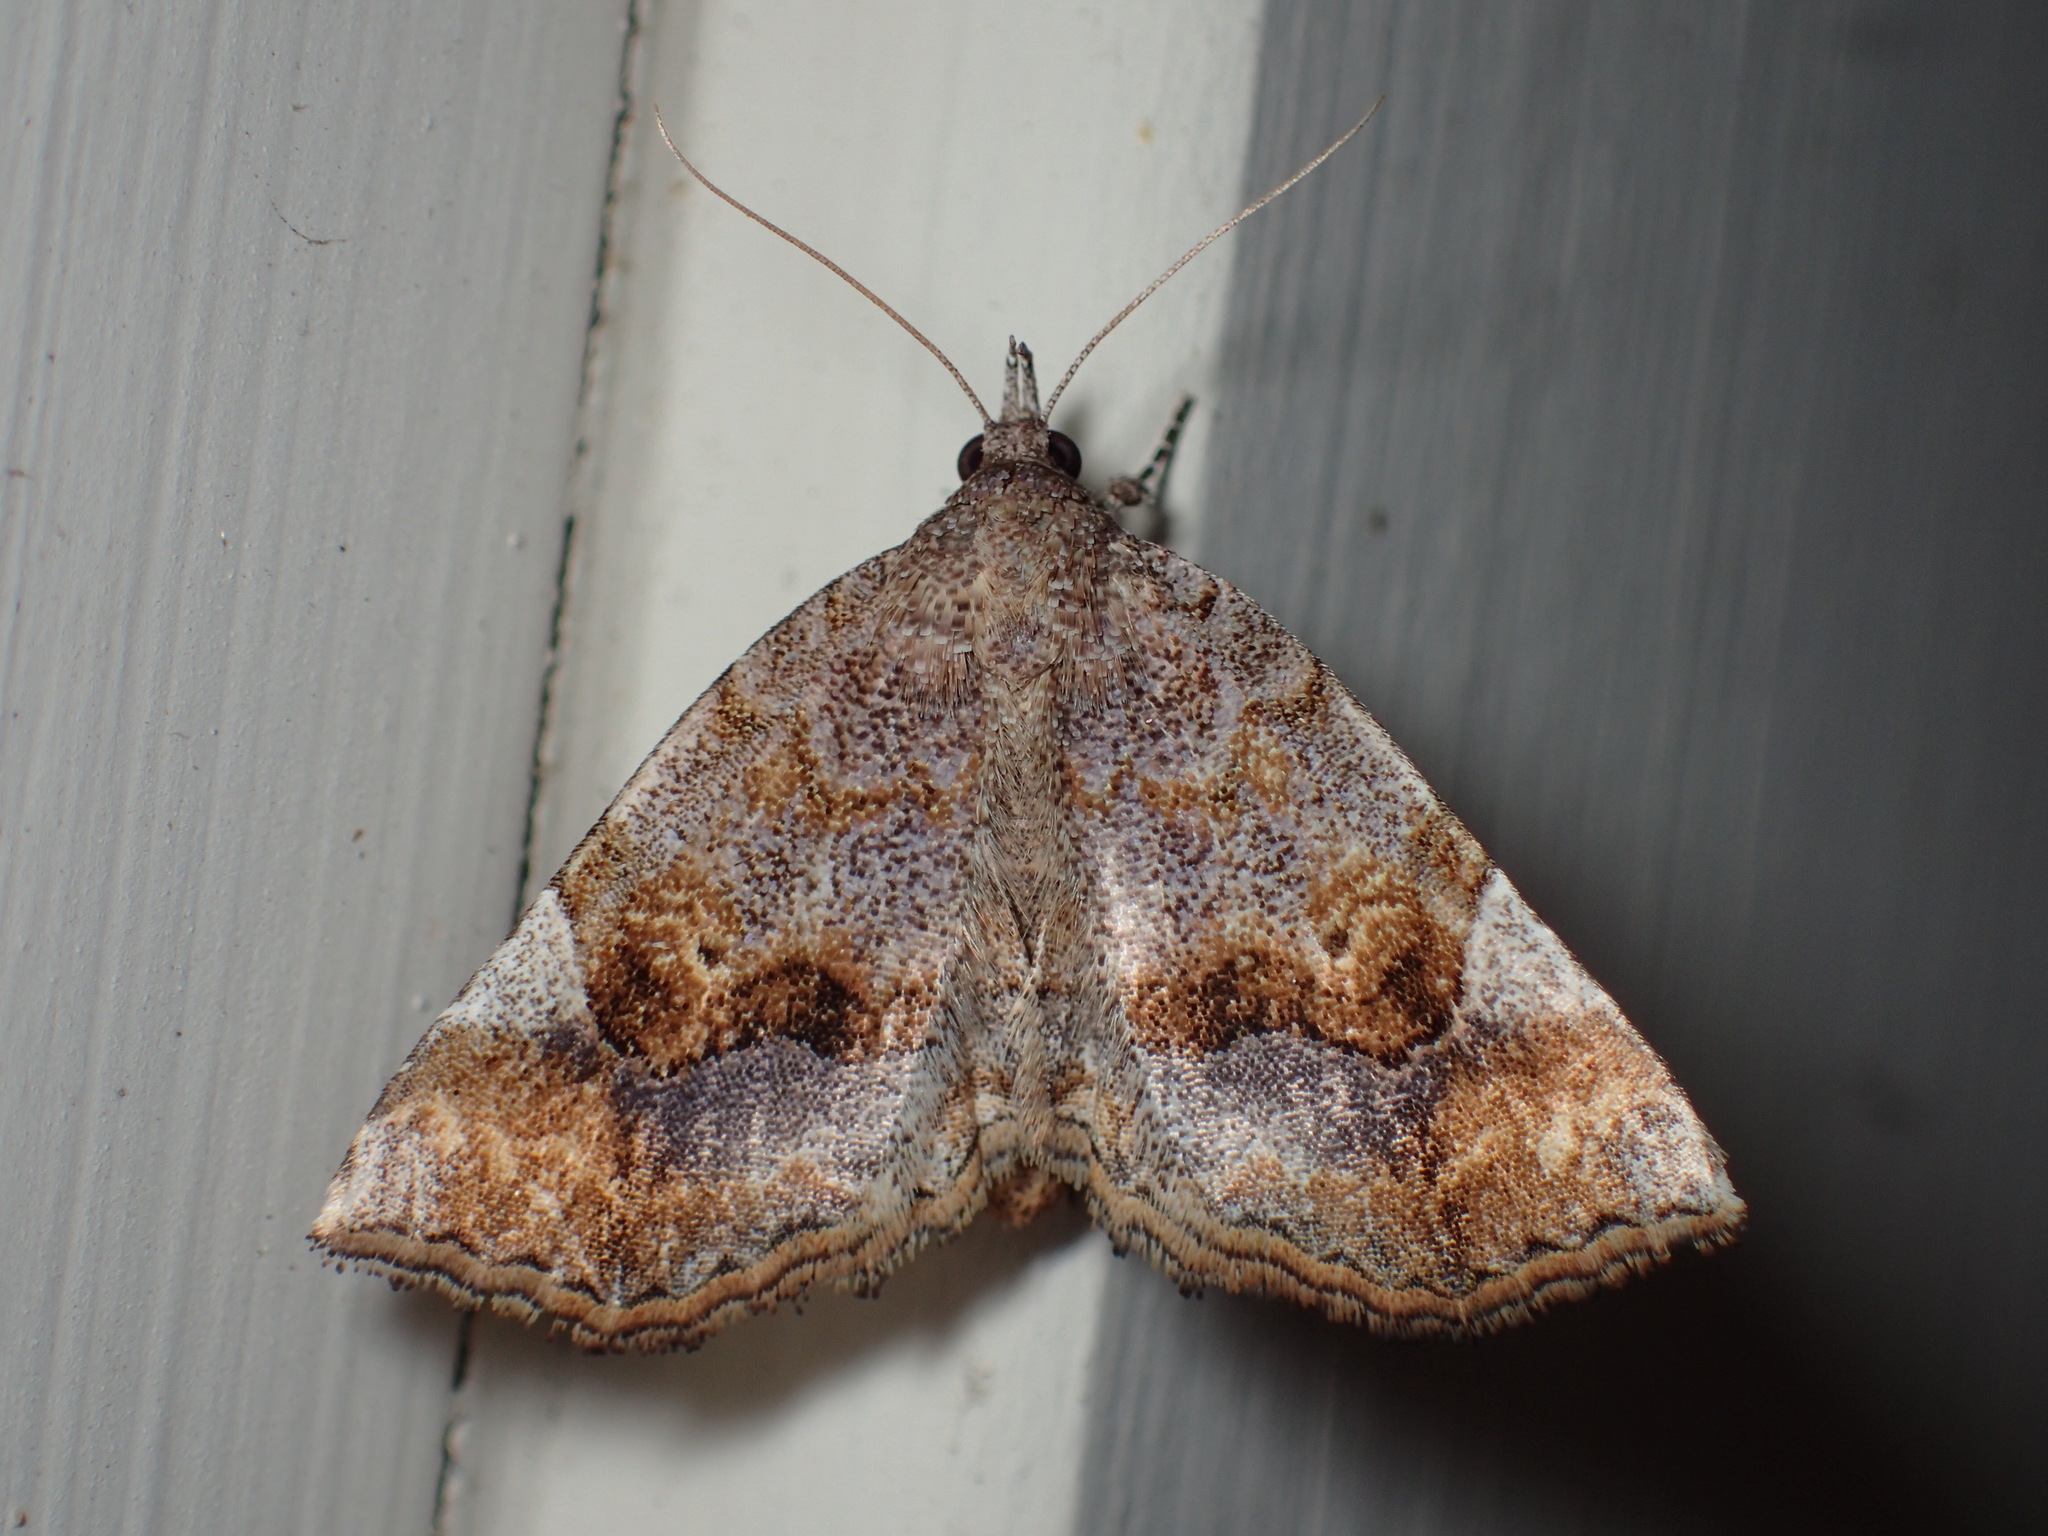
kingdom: Animalia
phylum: Arthropoda
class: Insecta
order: Lepidoptera
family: Erebidae
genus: Pangrapta
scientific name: Pangrapta decoralis
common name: Decorated owlet
